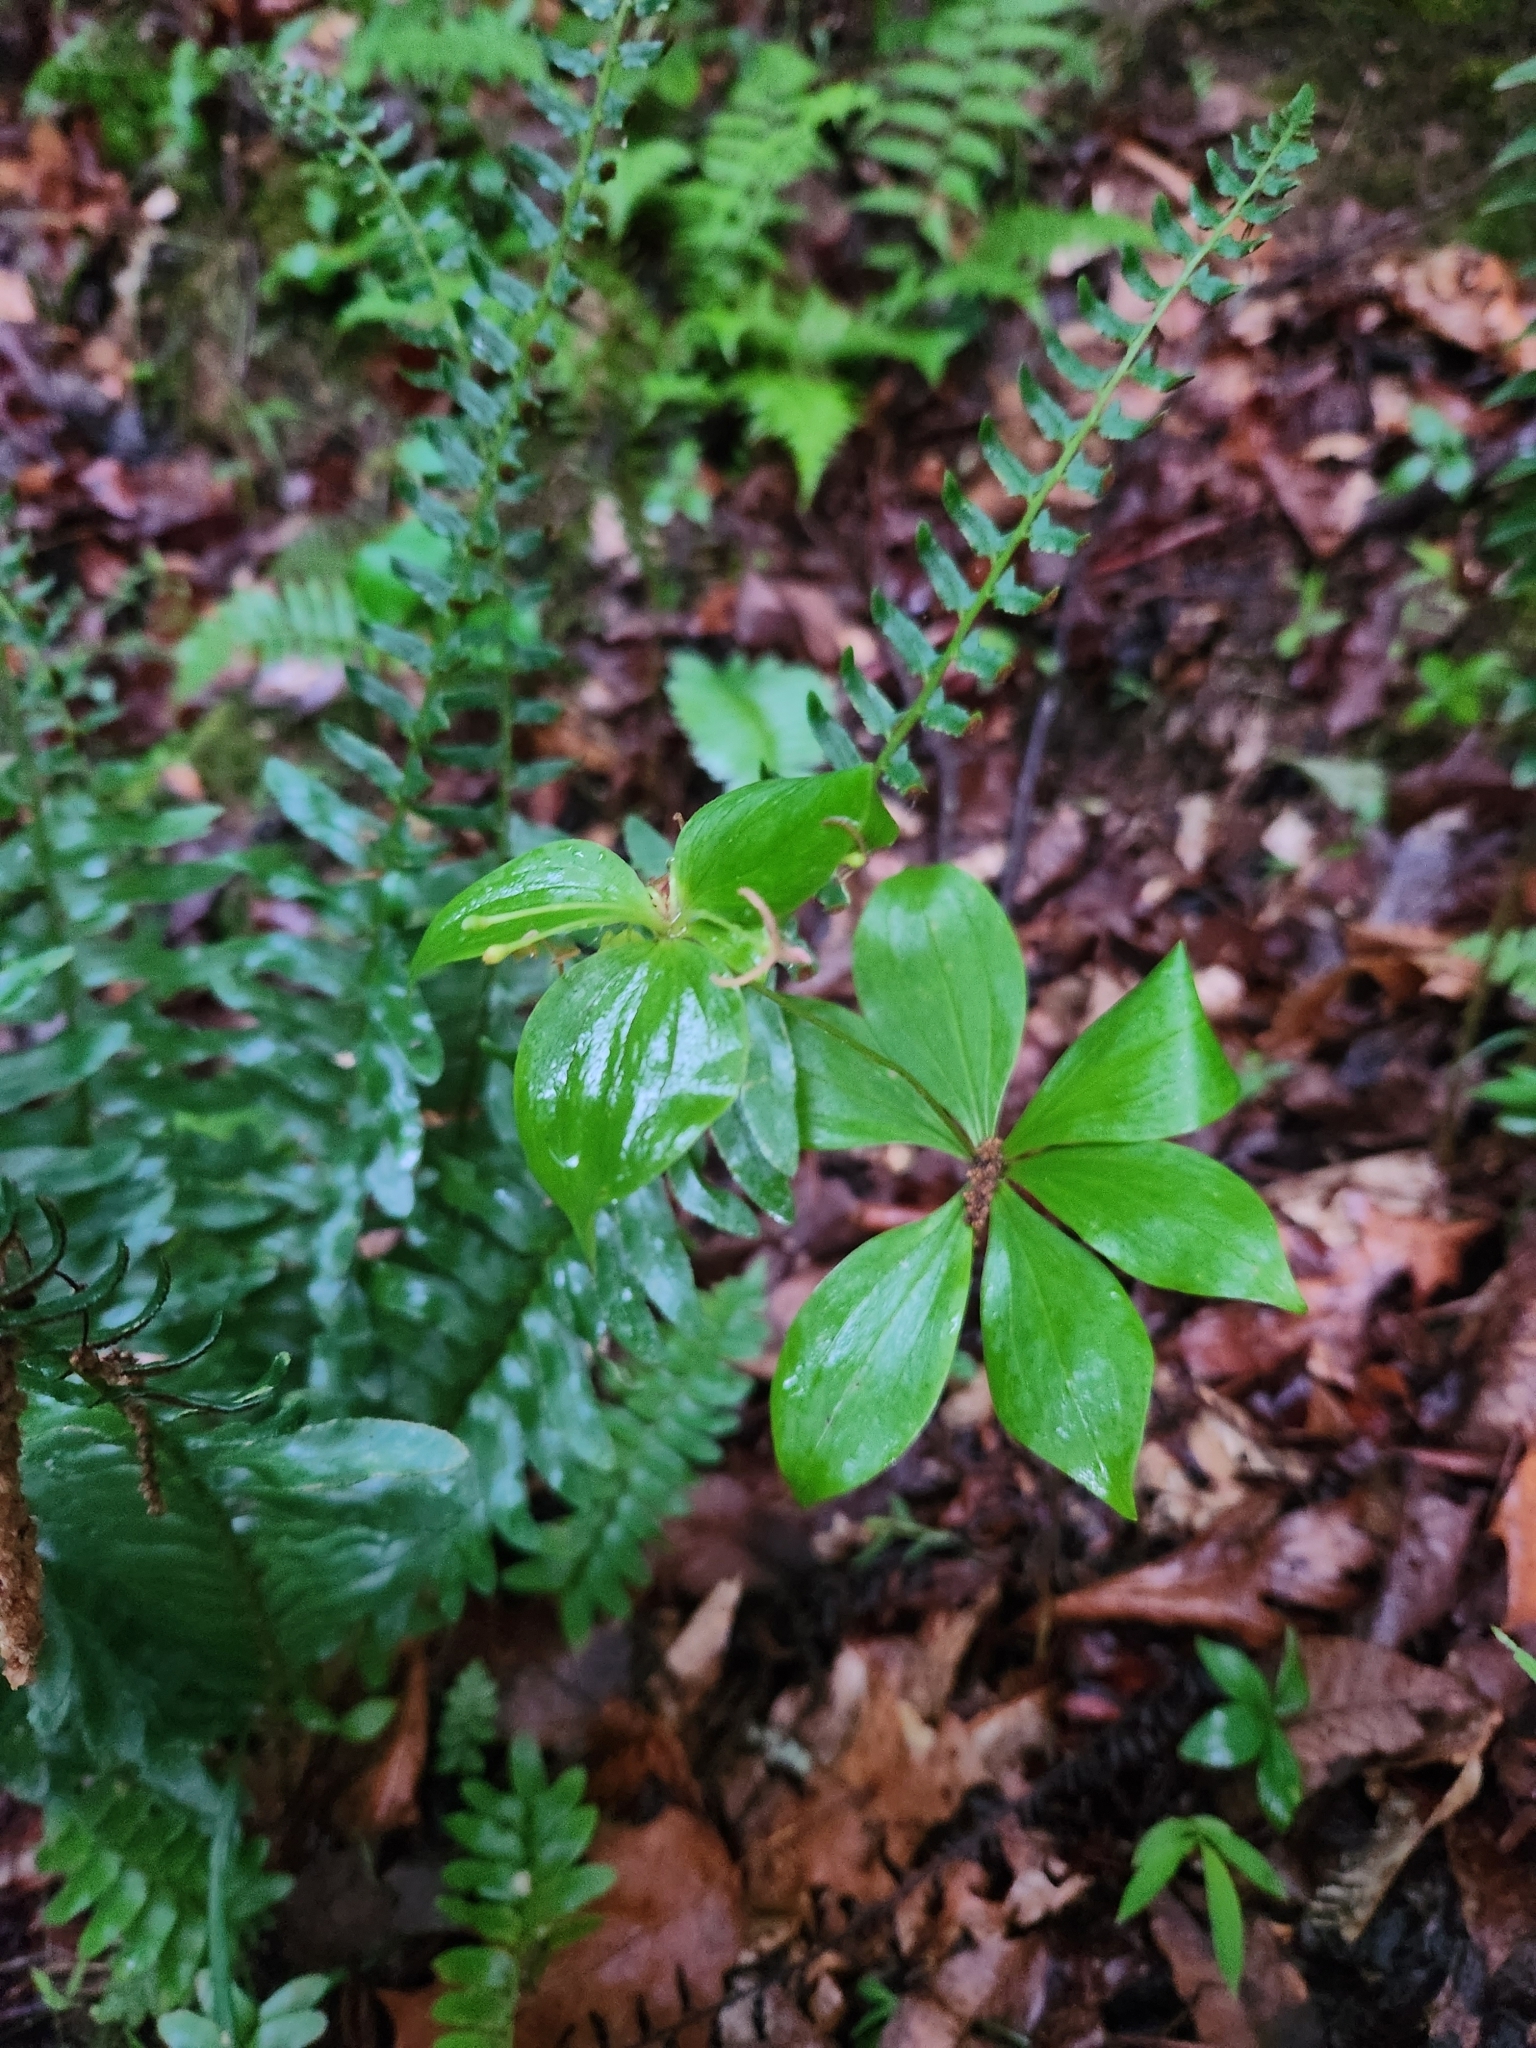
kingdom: Plantae
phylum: Tracheophyta
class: Liliopsida
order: Liliales
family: Liliaceae
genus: Medeola
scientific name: Medeola virginiana
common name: Indian cucumber-root
